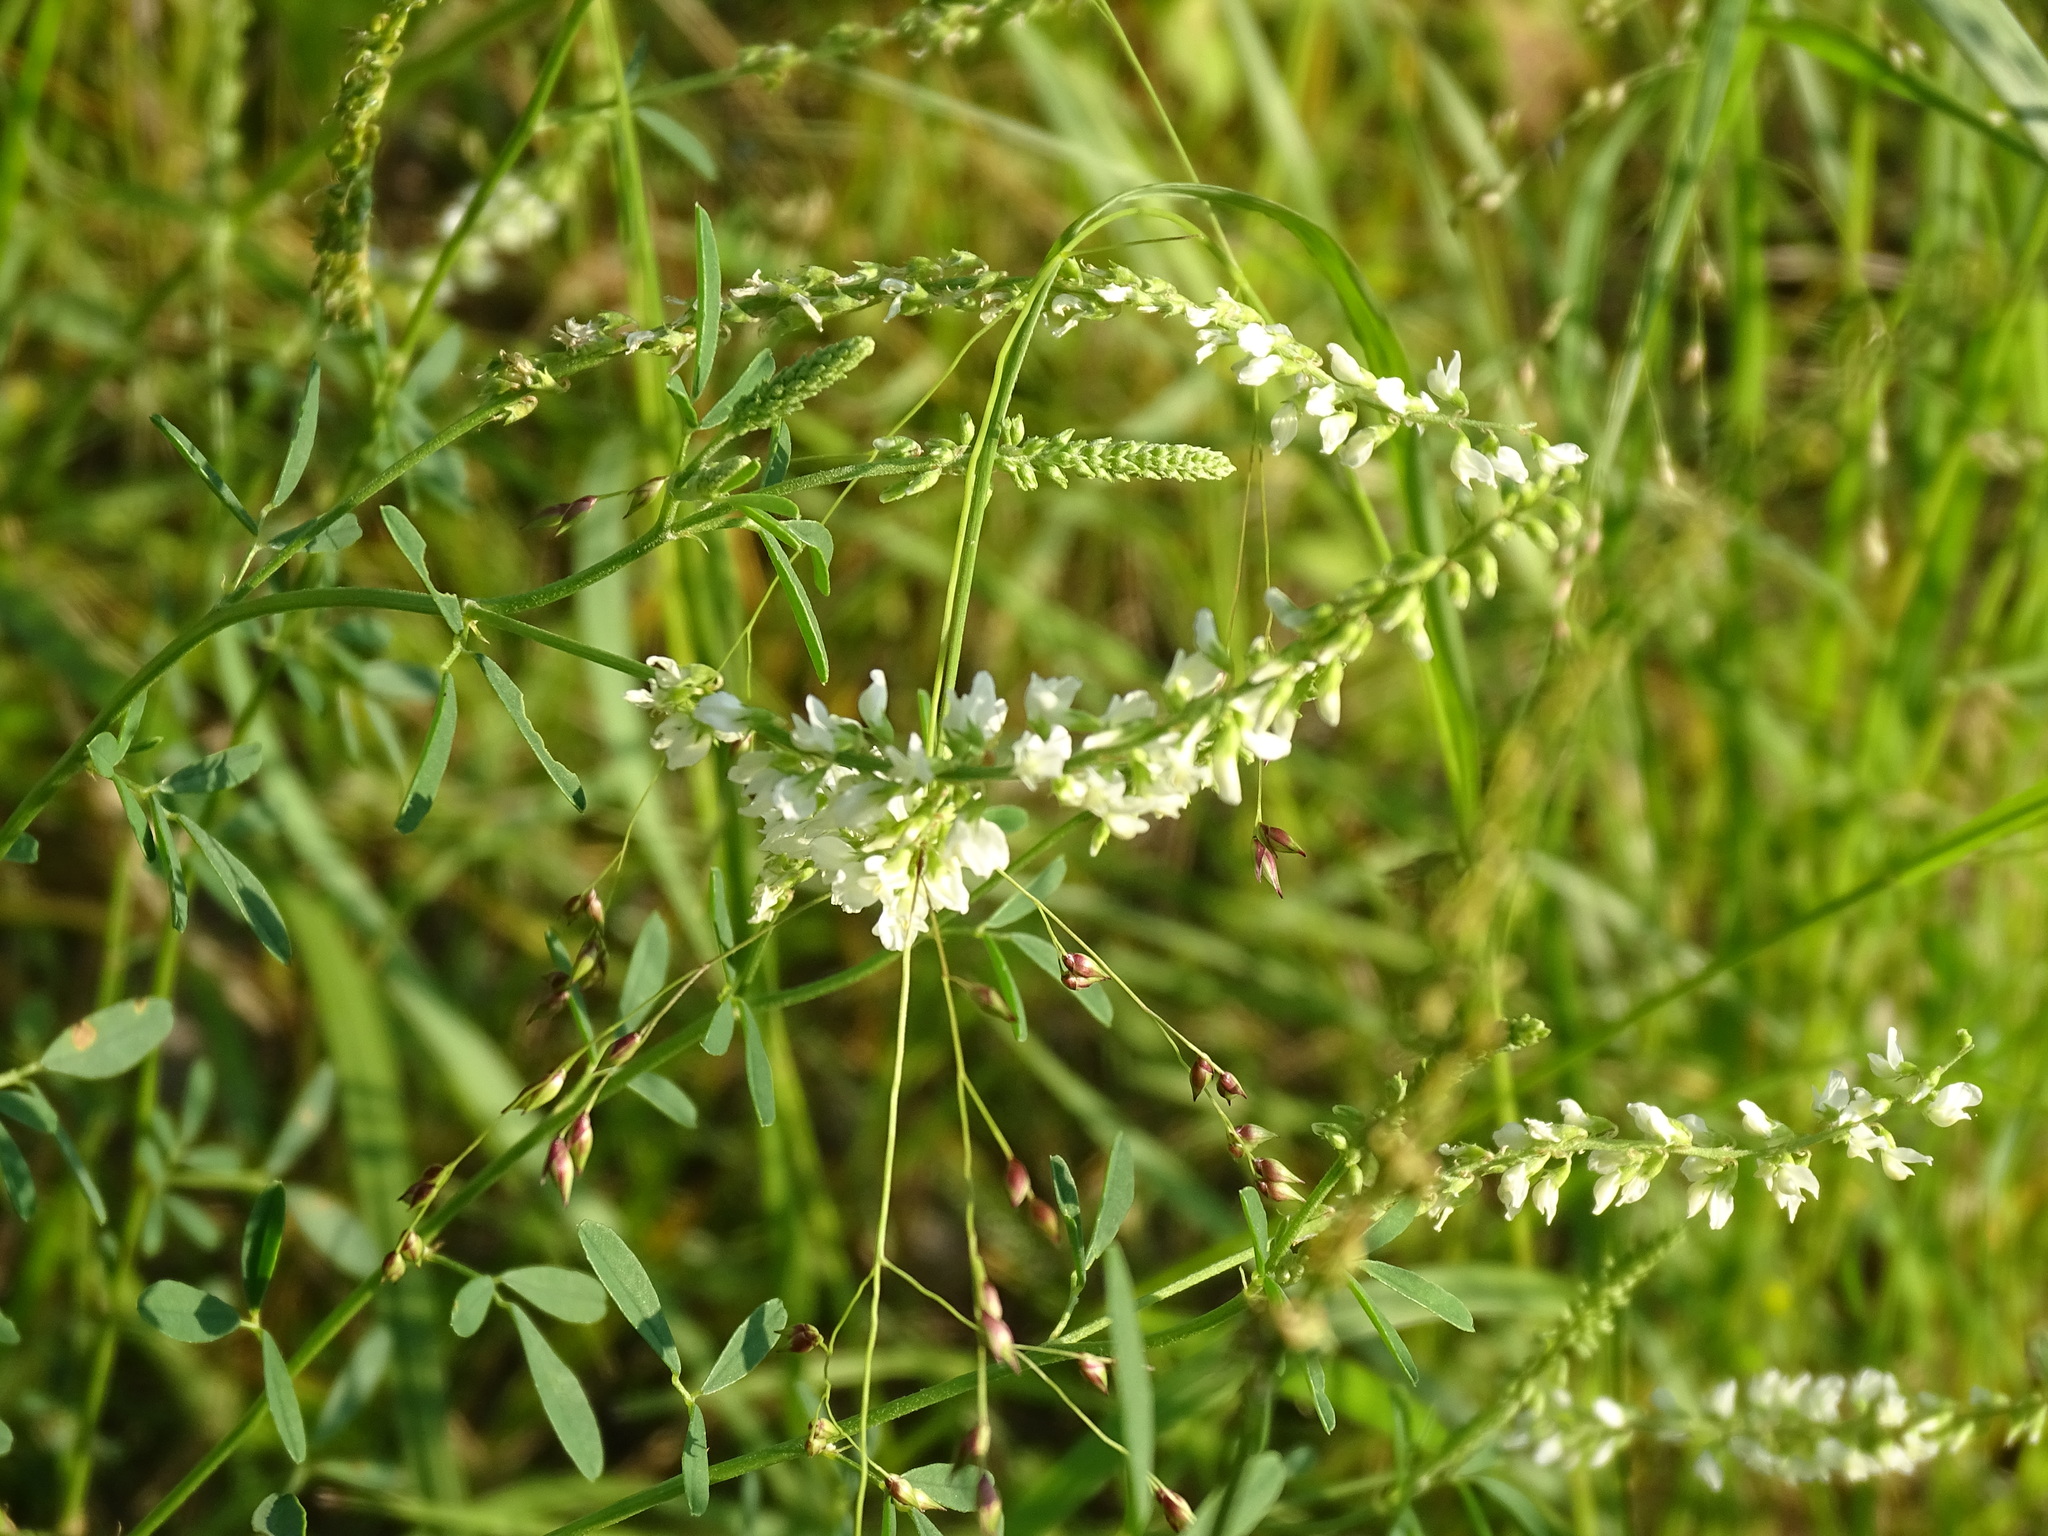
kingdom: Plantae
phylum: Tracheophyta
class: Magnoliopsida
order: Fabales
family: Fabaceae
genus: Melilotus
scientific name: Melilotus albus
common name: White melilot
